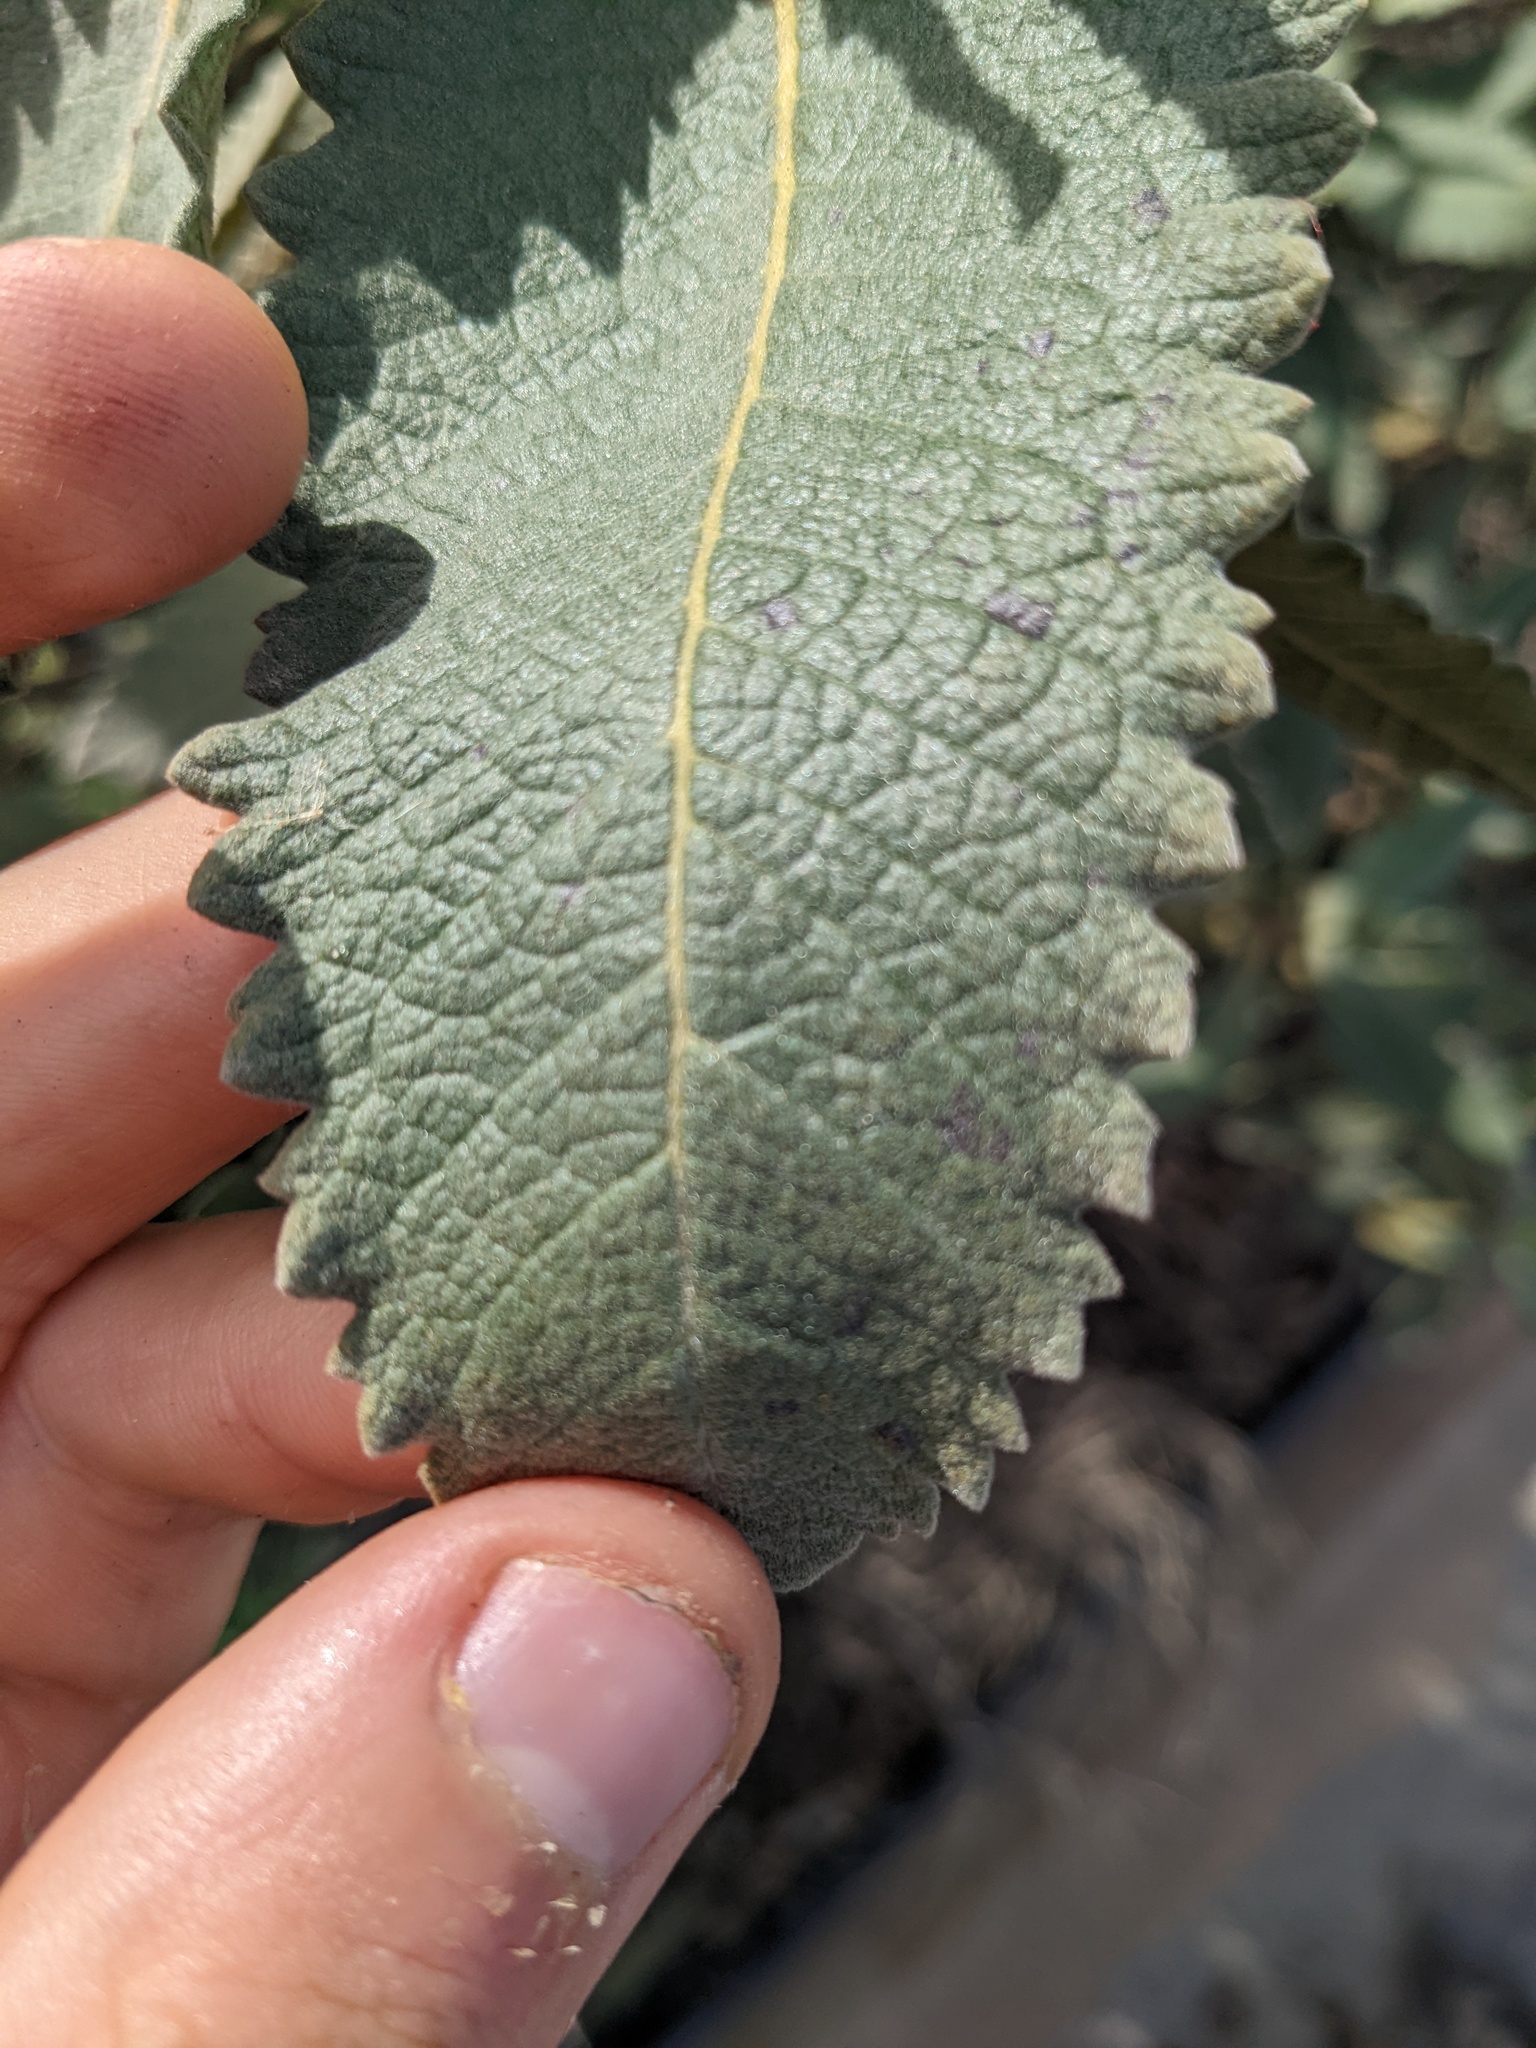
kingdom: Plantae
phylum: Tracheophyta
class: Magnoliopsida
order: Boraginales
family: Namaceae
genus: Eriodictyon
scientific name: Eriodictyon crassifolium
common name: Thick-leaf yerba-santa
